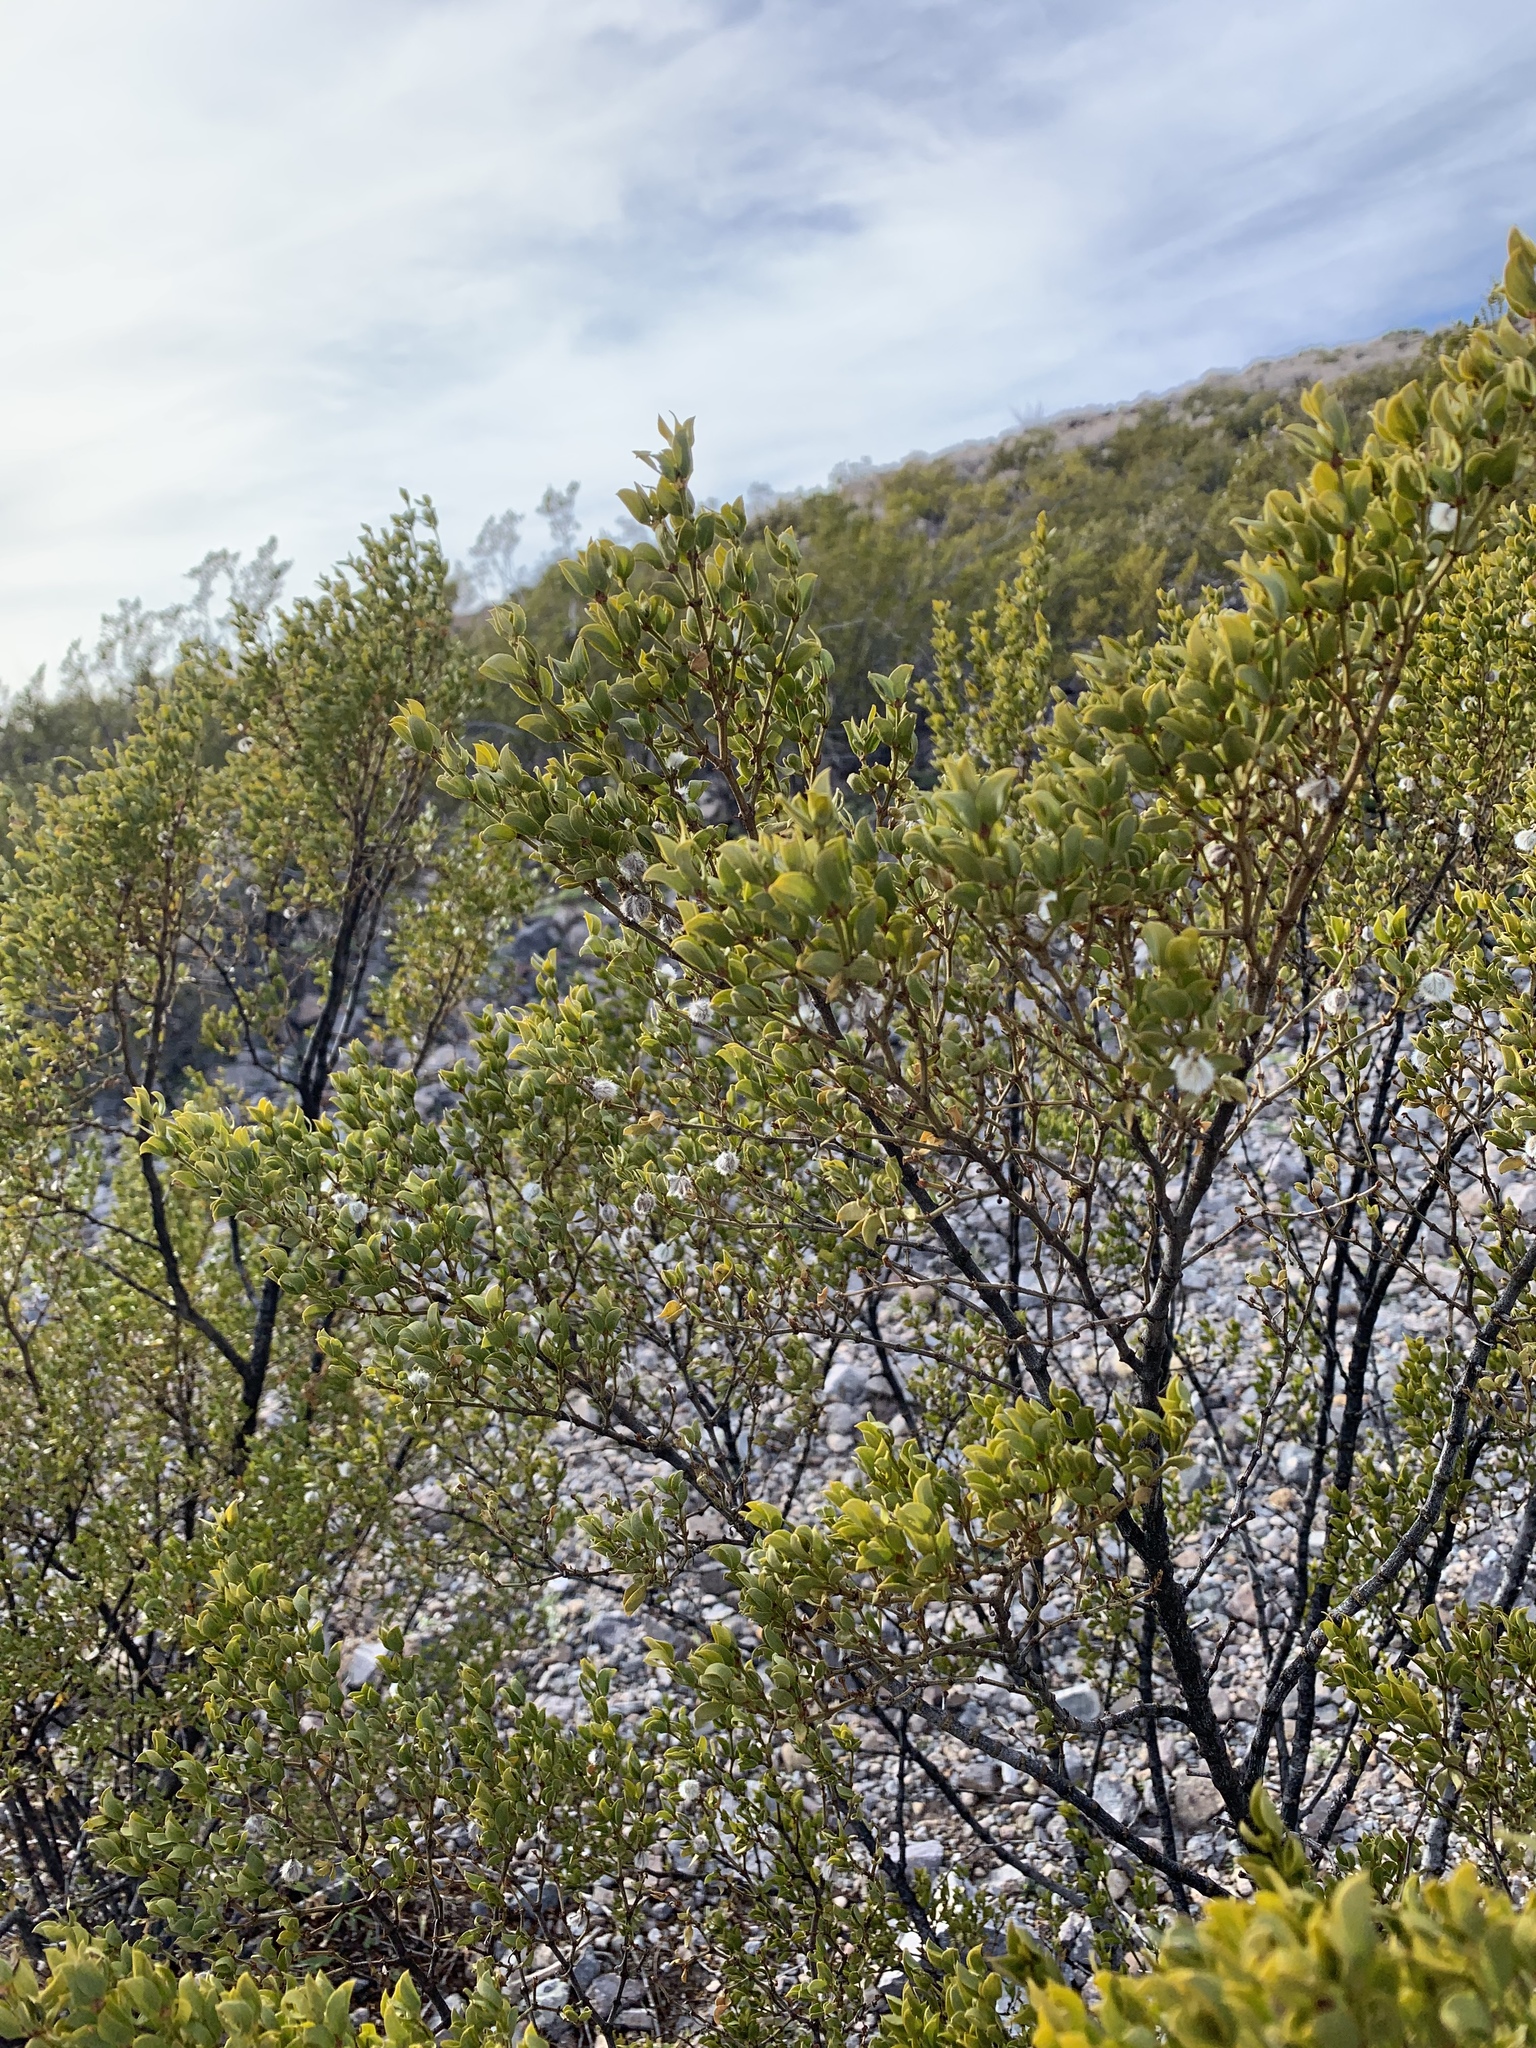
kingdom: Plantae
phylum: Tracheophyta
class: Magnoliopsida
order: Zygophyllales
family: Zygophyllaceae
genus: Larrea
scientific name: Larrea tridentata
